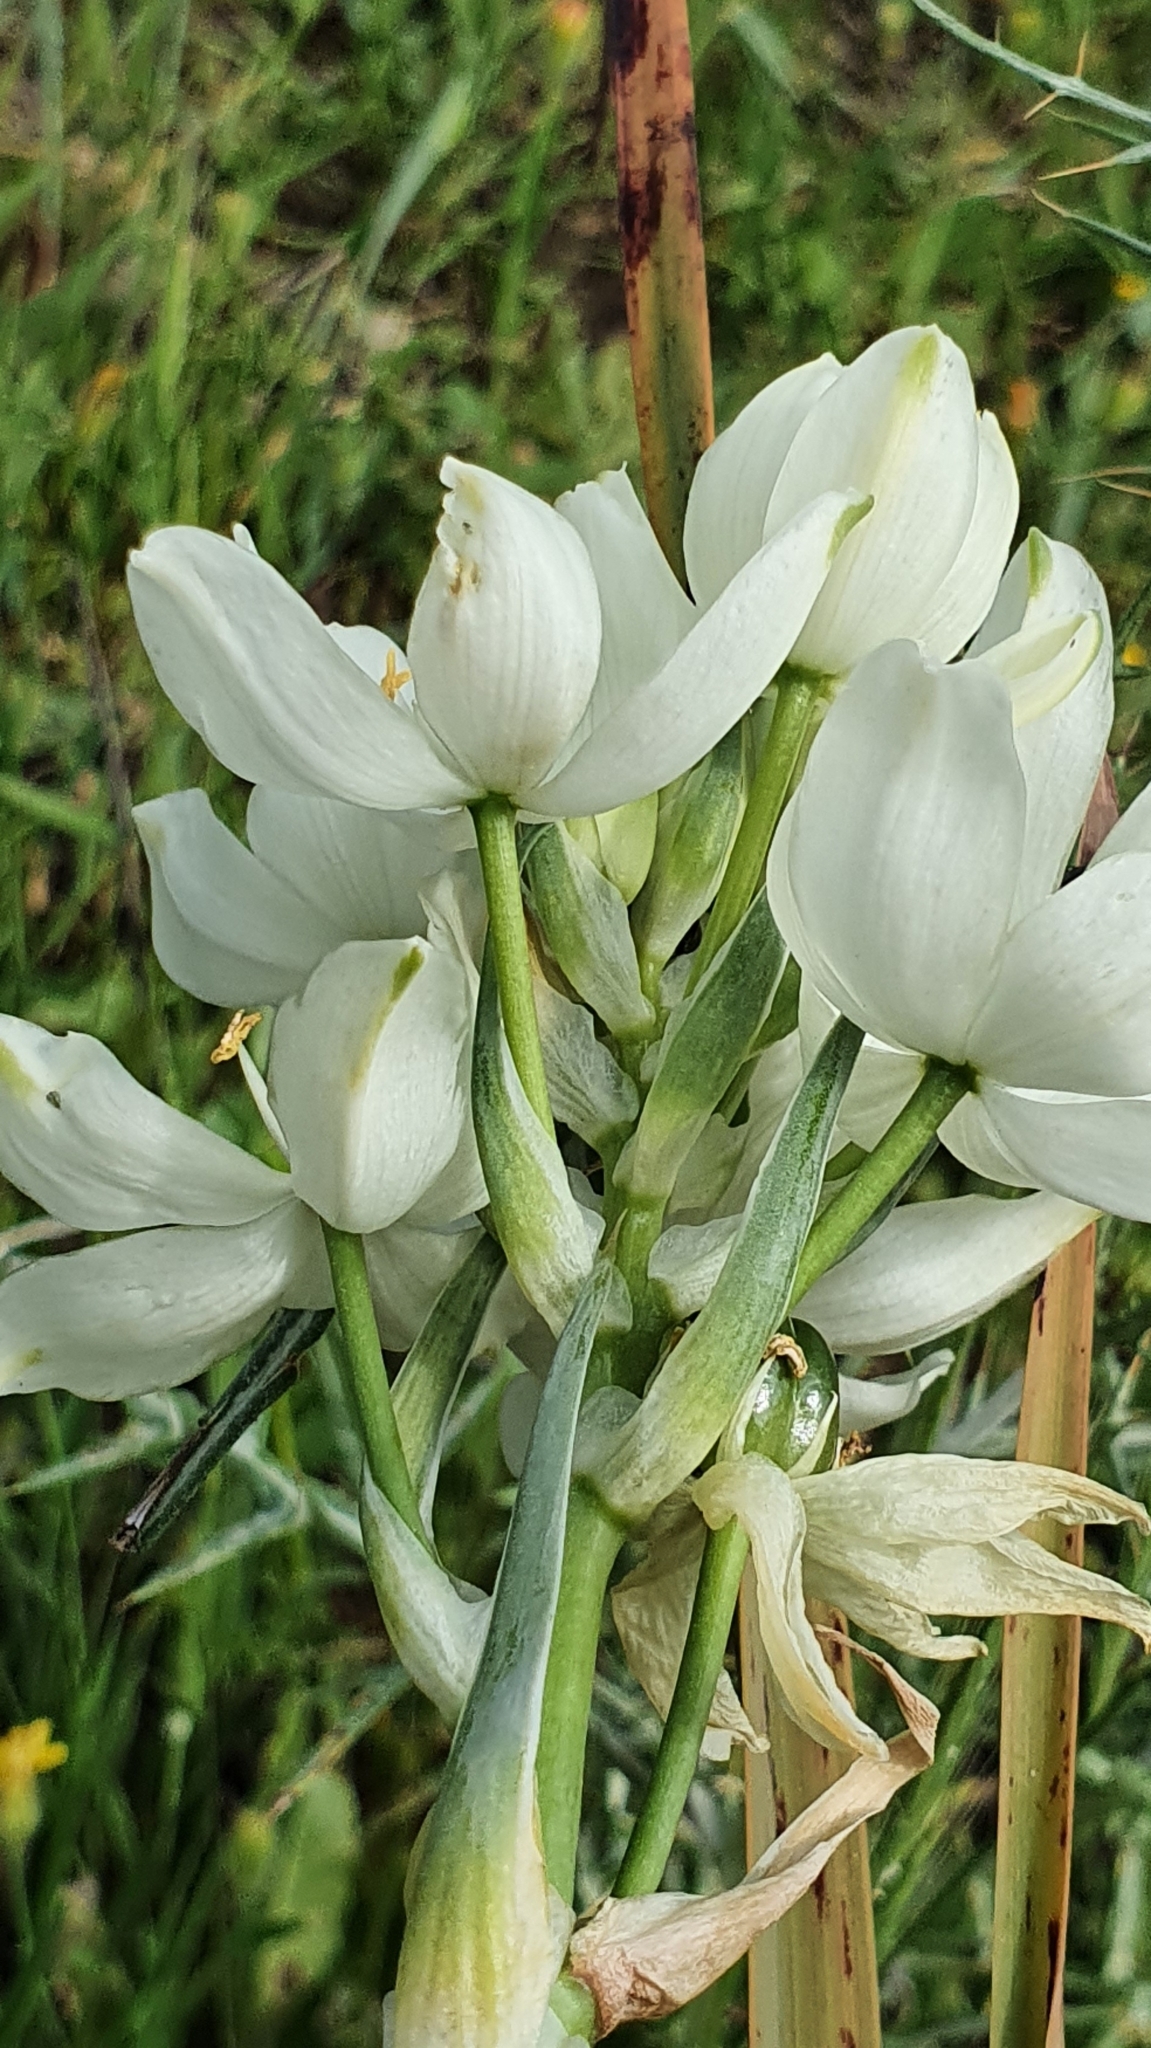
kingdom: Plantae
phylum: Tracheophyta
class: Liliopsida
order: Asparagales
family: Asparagaceae
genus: Ornithogalum
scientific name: Ornithogalum arabicum
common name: Arabian starflower
